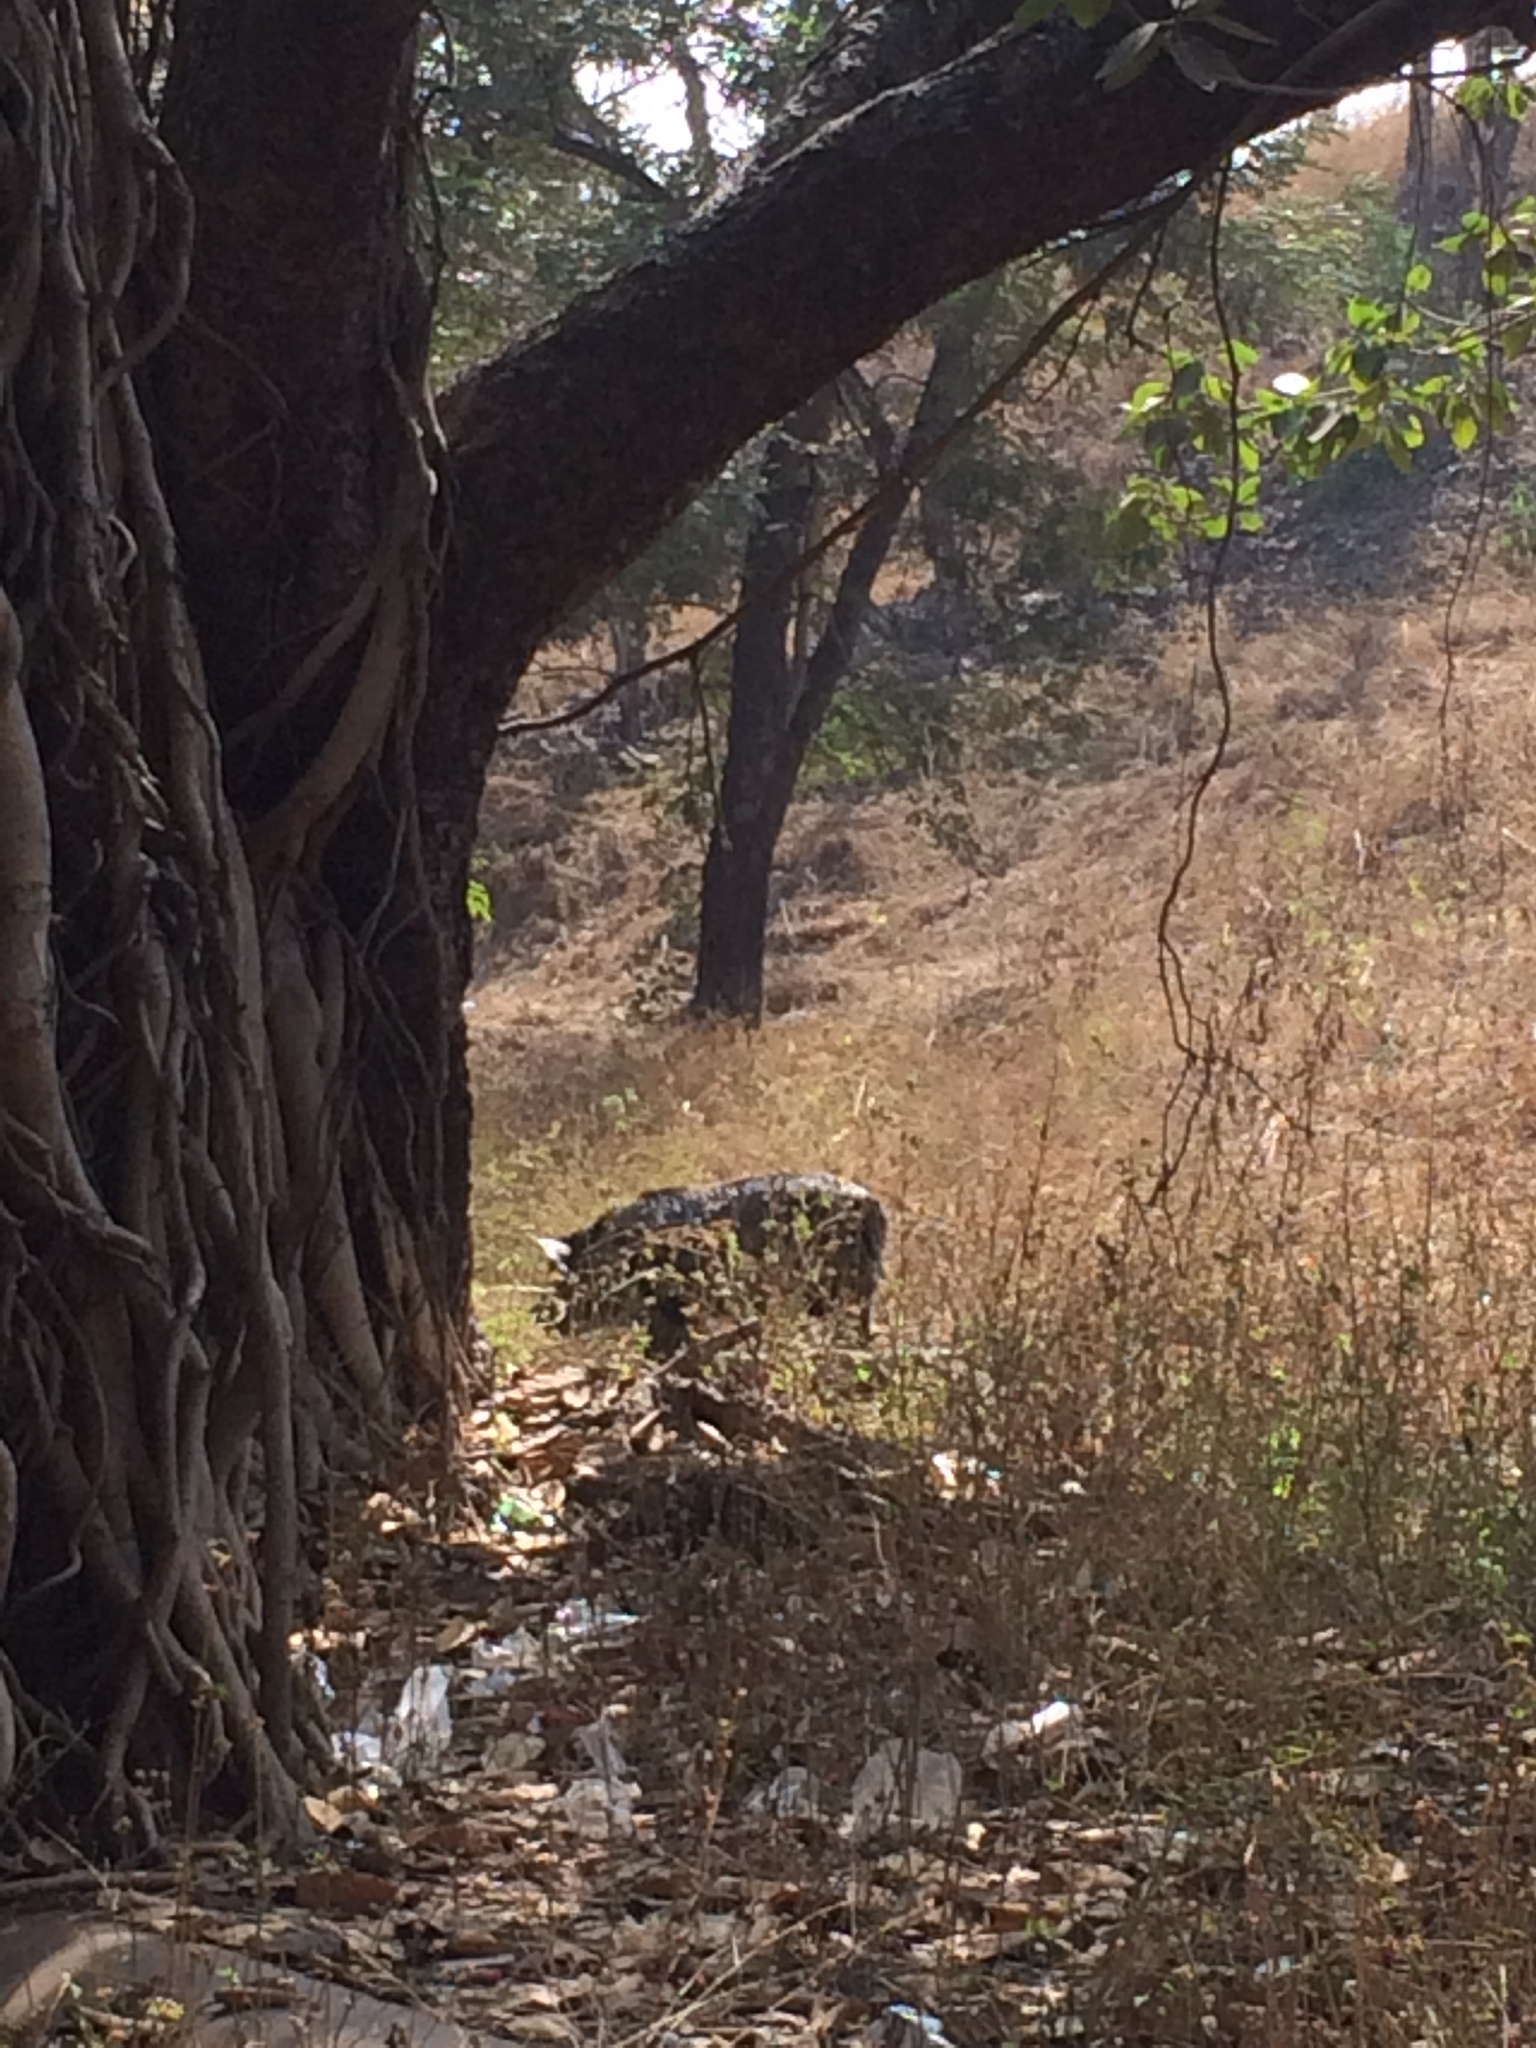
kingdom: Animalia
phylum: Chordata
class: Mammalia
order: Artiodactyla
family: Suidae
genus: Sus
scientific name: Sus scrofa
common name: Wild boar
